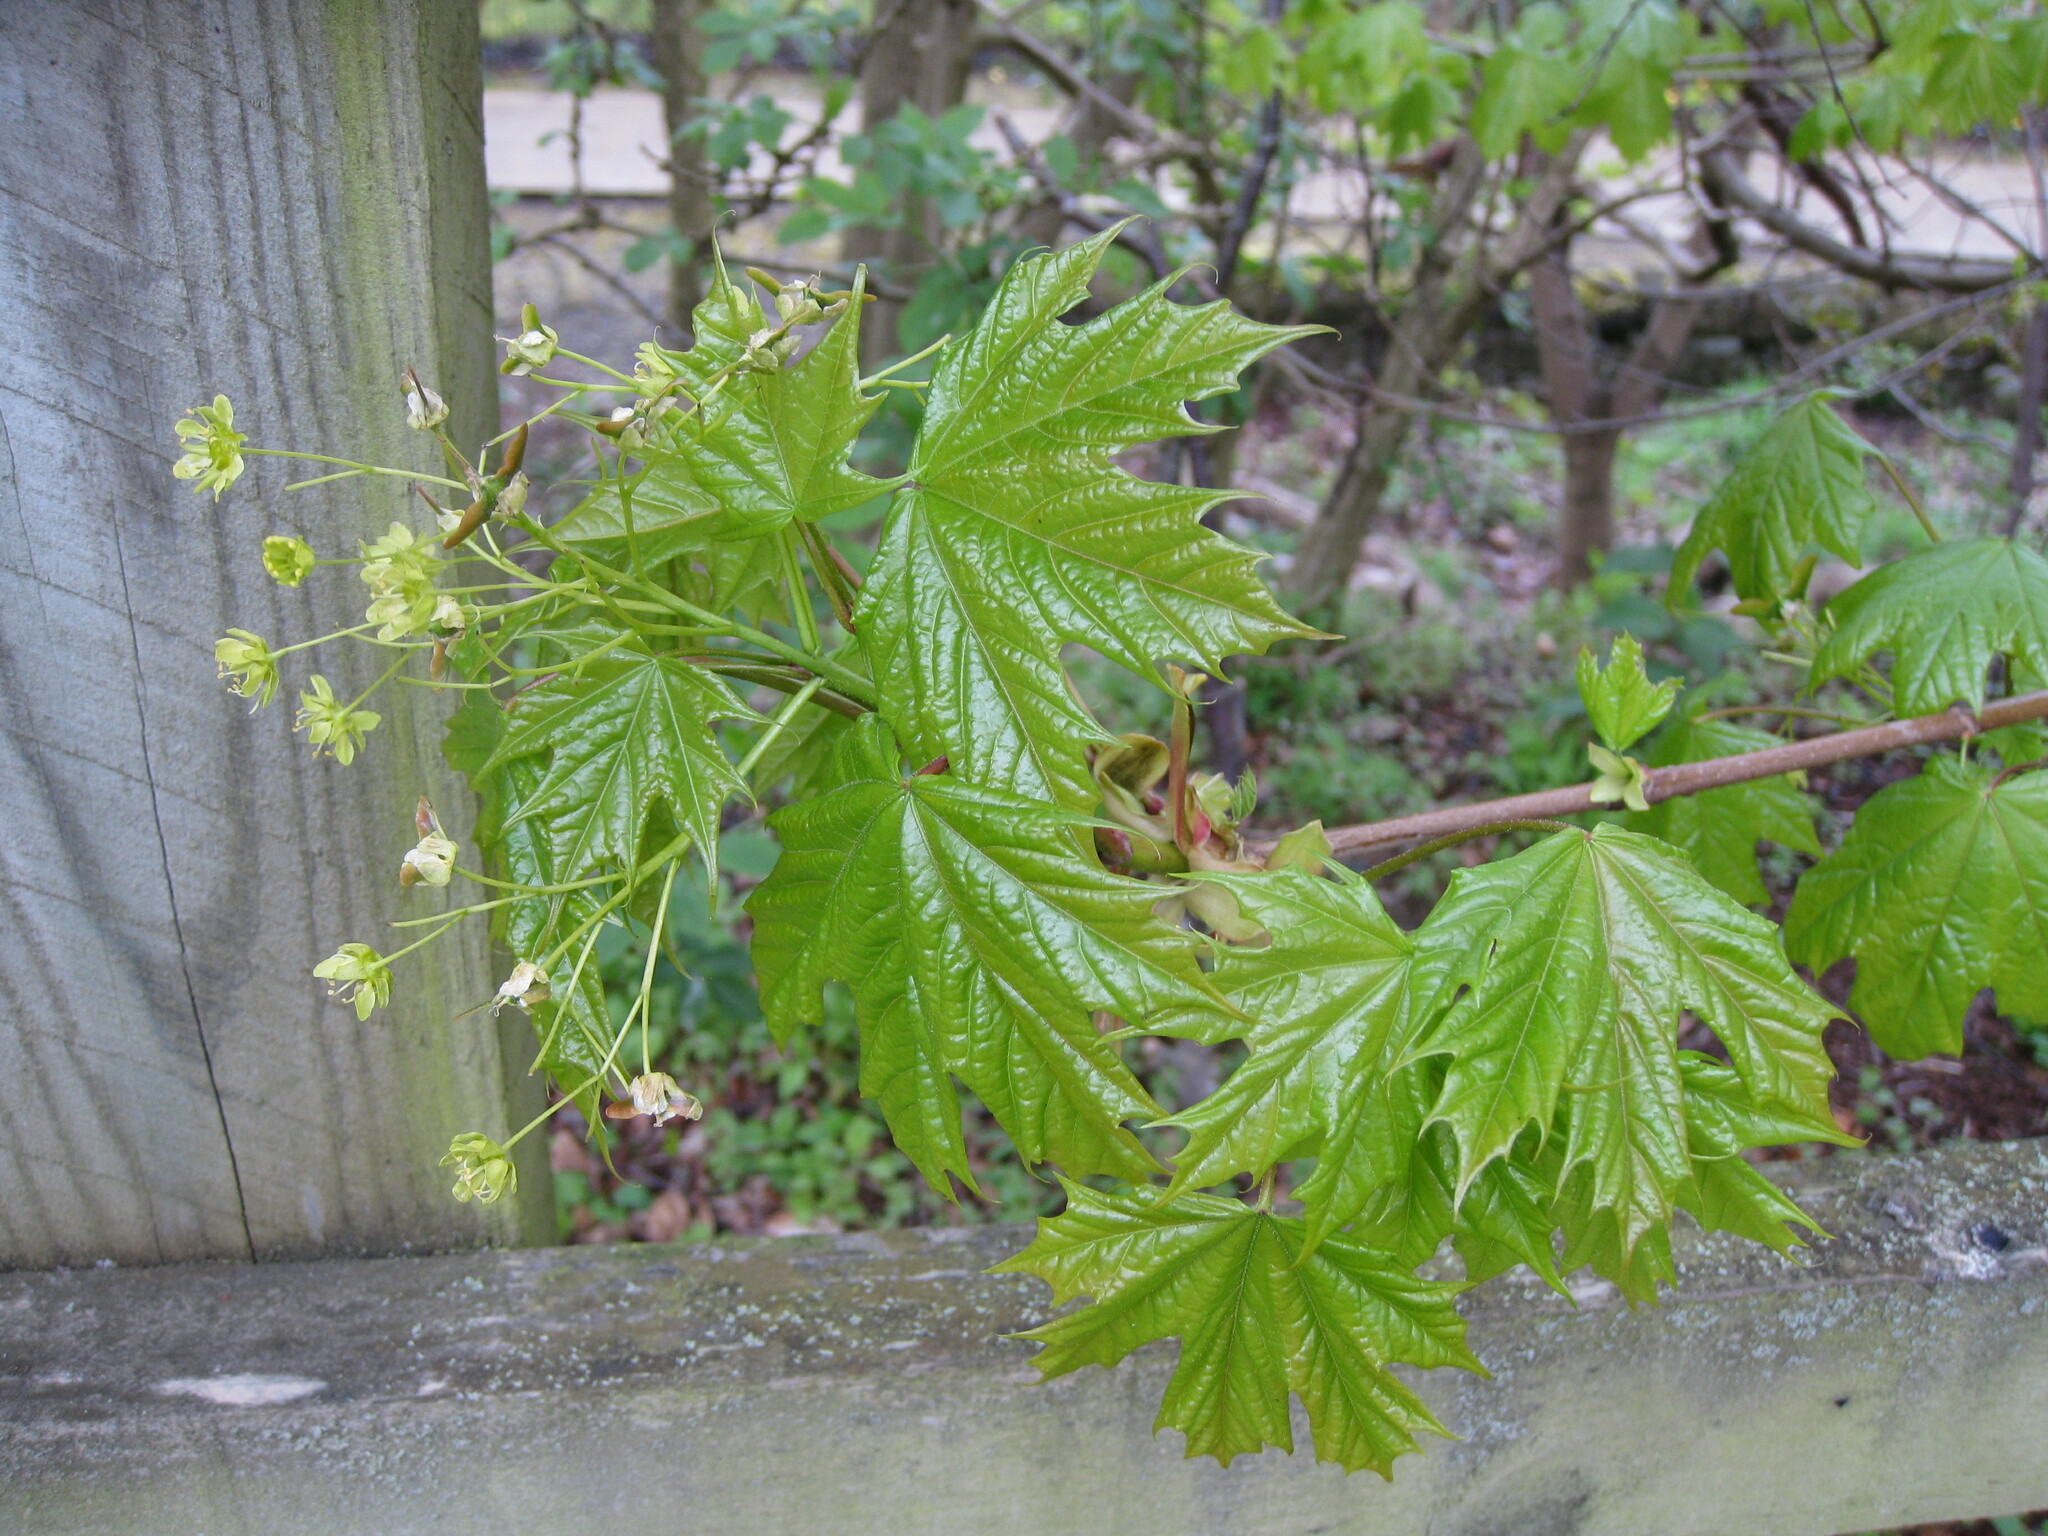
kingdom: Plantae
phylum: Tracheophyta
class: Magnoliopsida
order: Sapindales
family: Sapindaceae
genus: Acer
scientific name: Acer platanoides
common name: Norway maple
